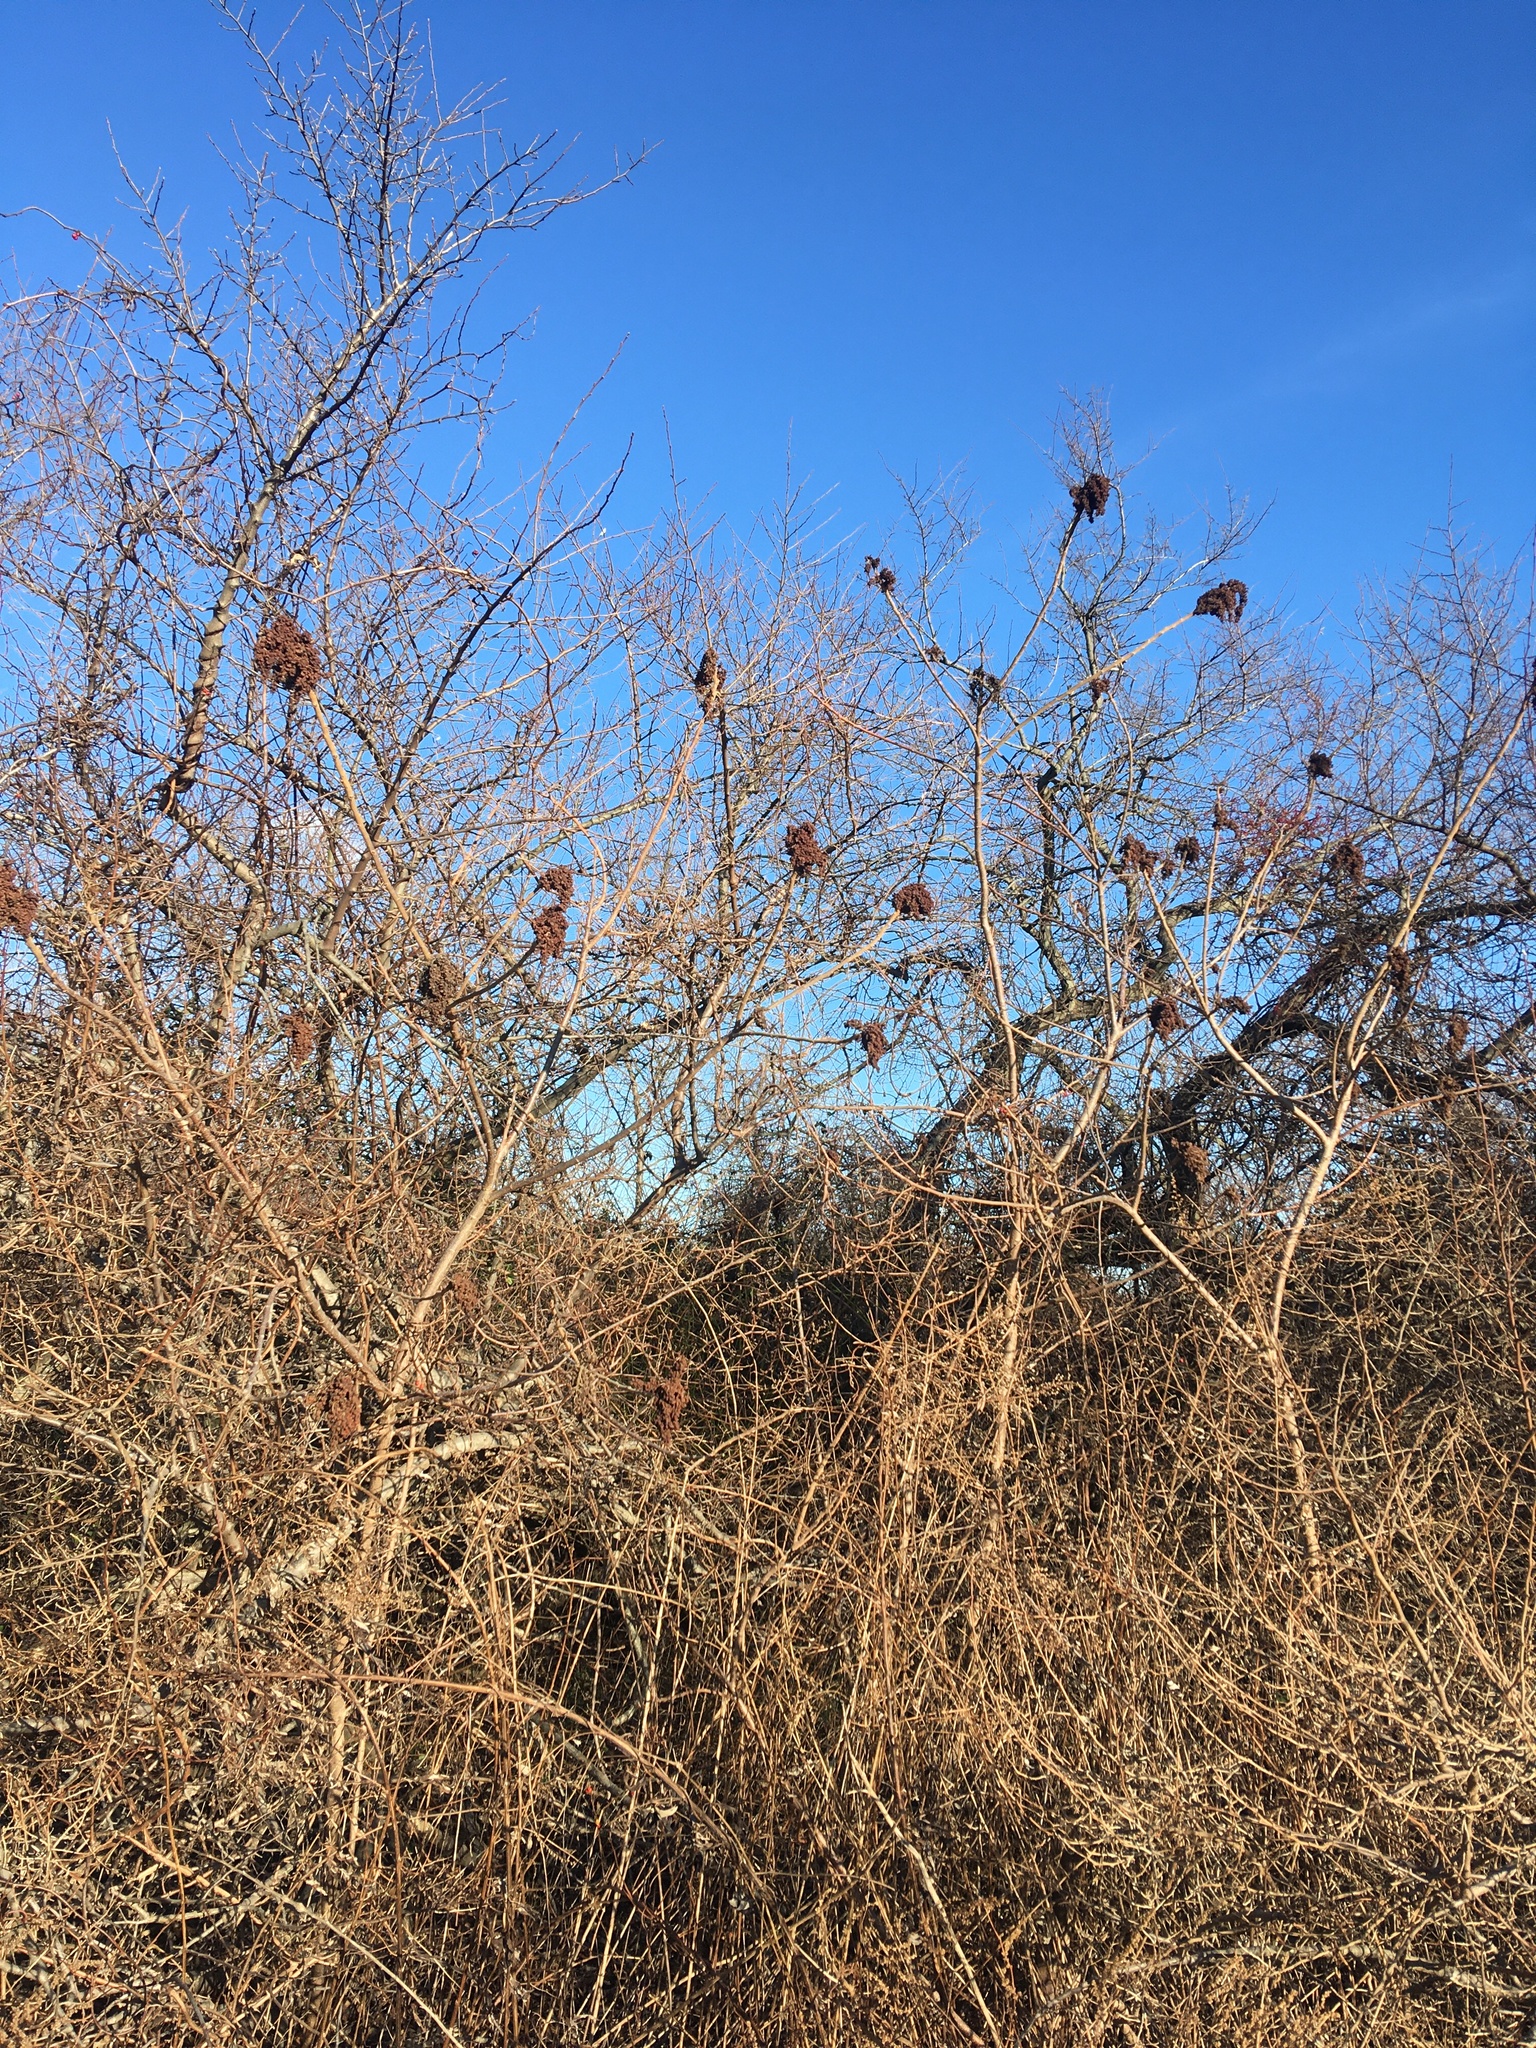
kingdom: Plantae
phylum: Tracheophyta
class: Magnoliopsida
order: Sapindales
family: Anacardiaceae
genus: Rhus
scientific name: Rhus copallina
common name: Shining sumac
